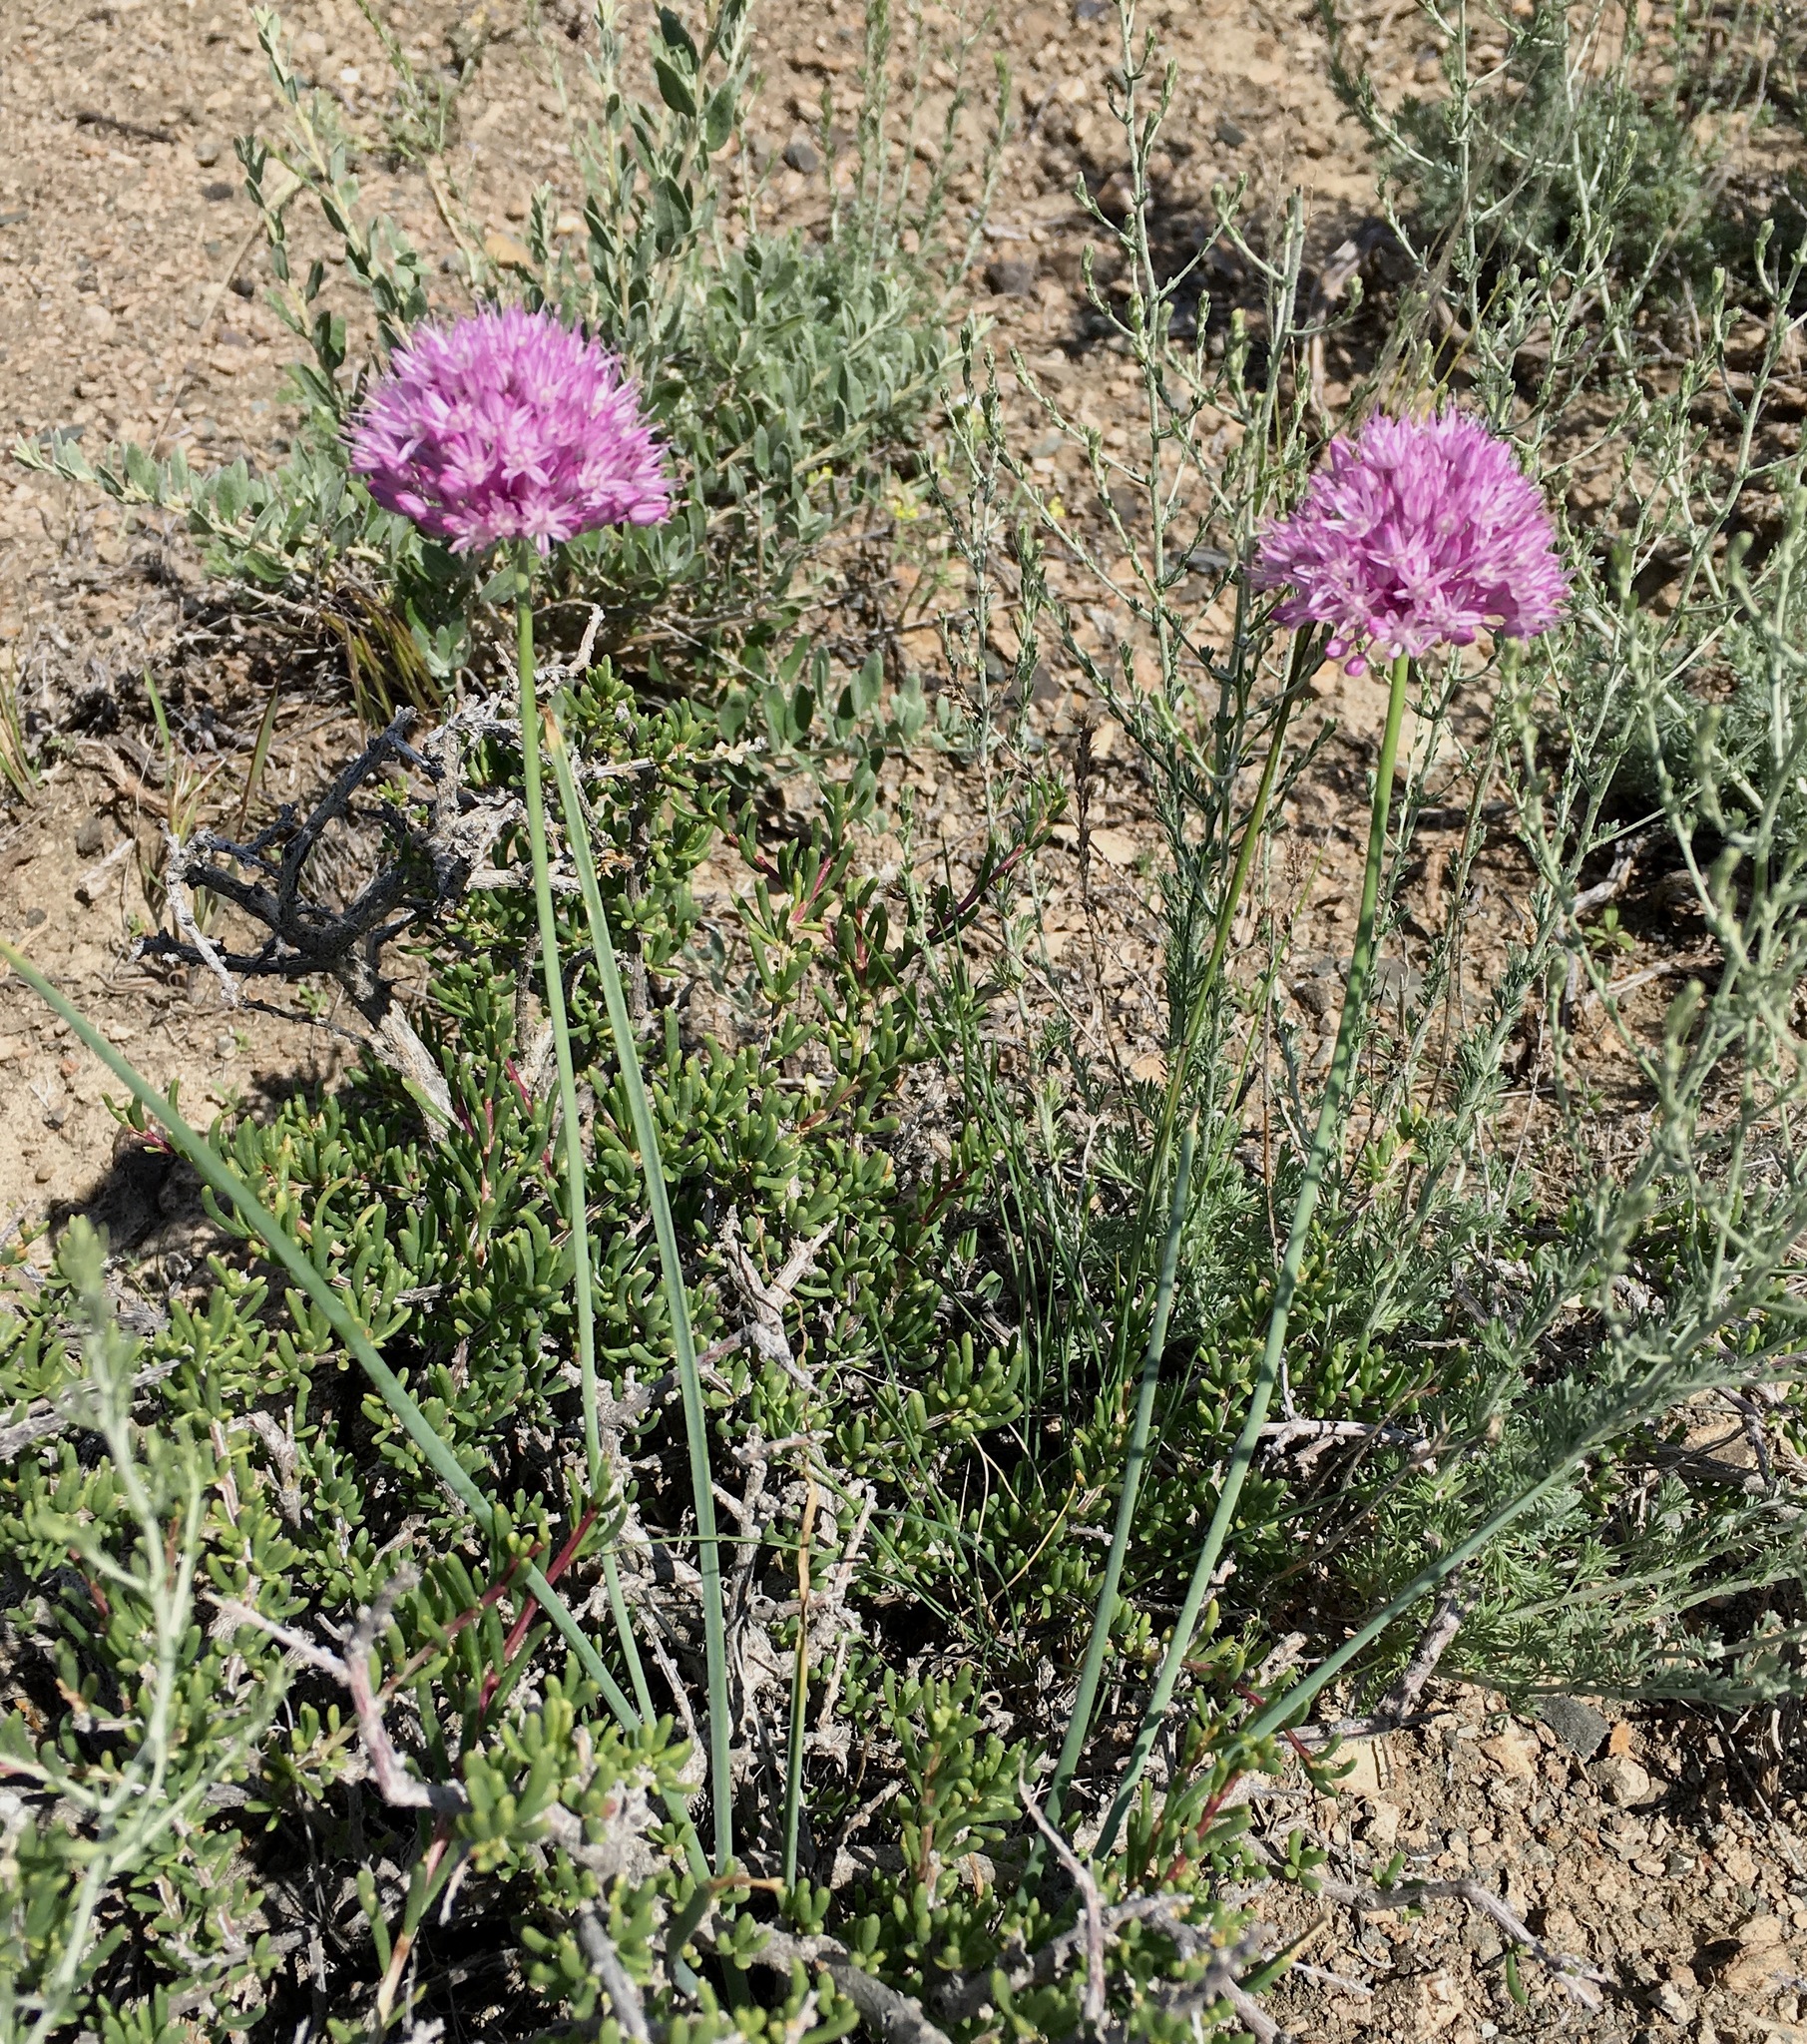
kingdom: Plantae
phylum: Tracheophyta
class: Liliopsida
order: Asparagales
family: Amaryllidaceae
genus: Allium
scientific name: Allium pallasii
